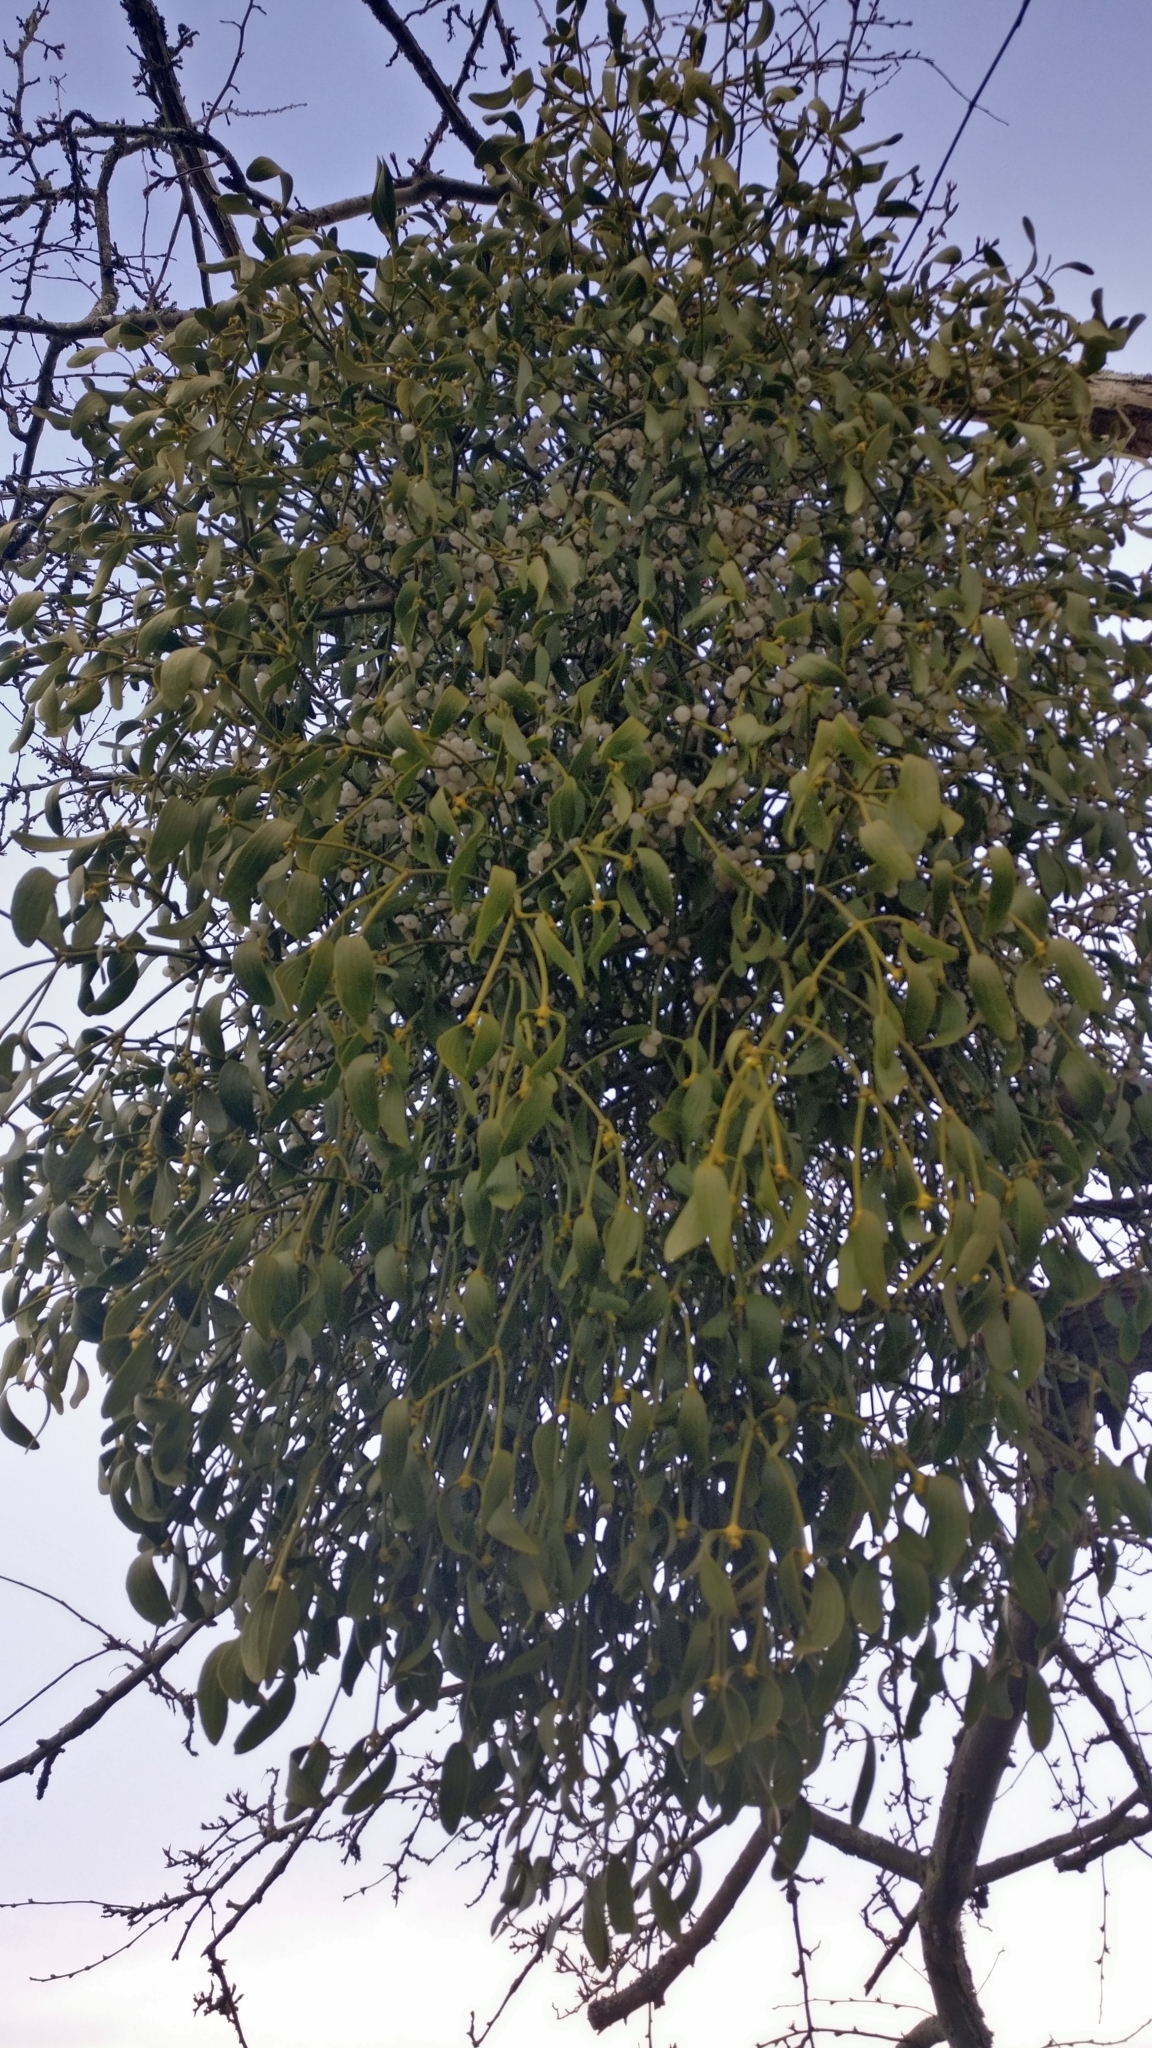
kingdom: Plantae
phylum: Tracheophyta
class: Magnoliopsida
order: Santalales
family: Viscaceae
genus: Viscum
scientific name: Viscum album
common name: Mistletoe
